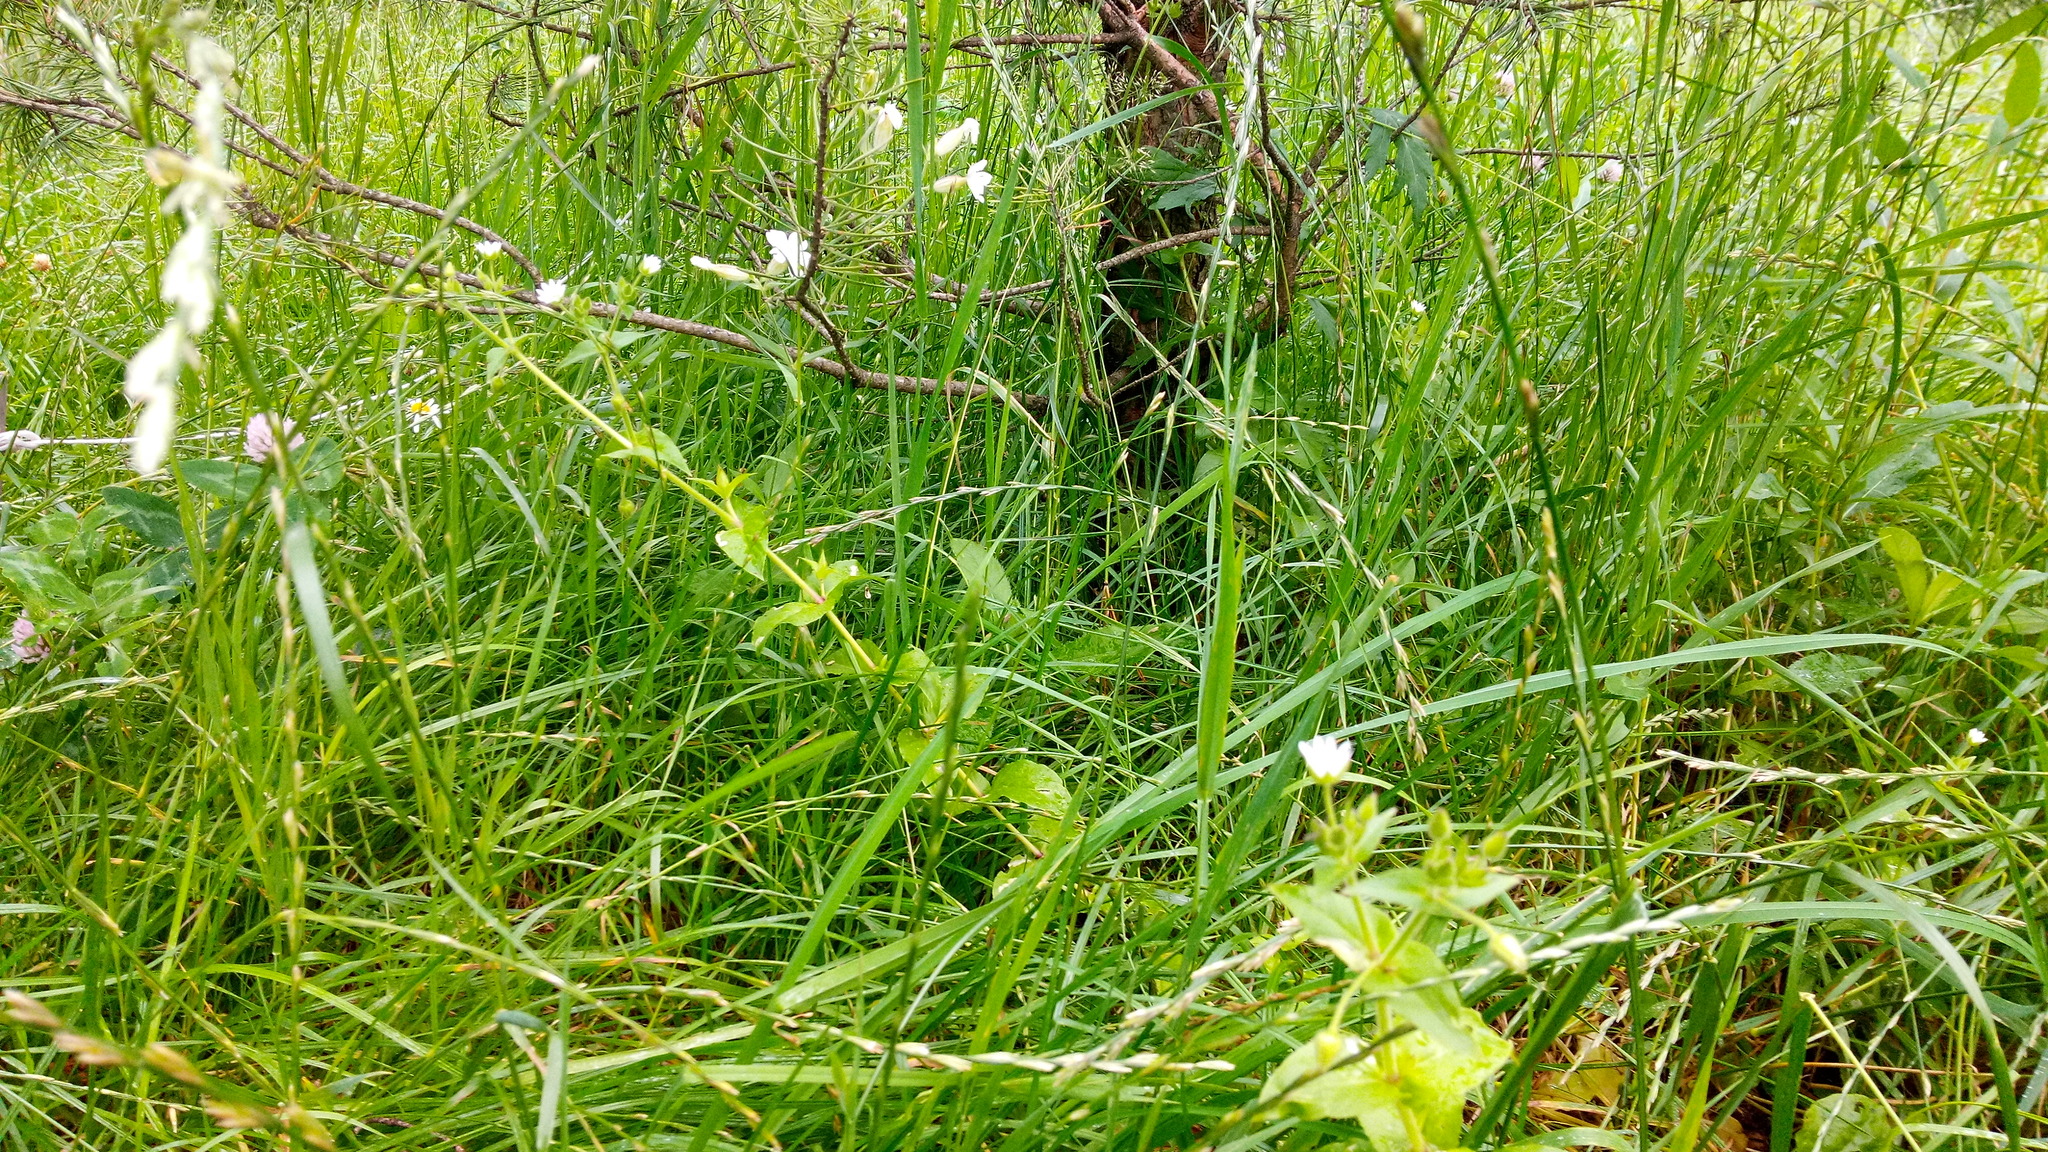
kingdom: Plantae
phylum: Tracheophyta
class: Magnoliopsida
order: Caryophyllales
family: Caryophyllaceae
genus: Stellaria
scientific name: Stellaria aquatica
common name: Water chickweed
